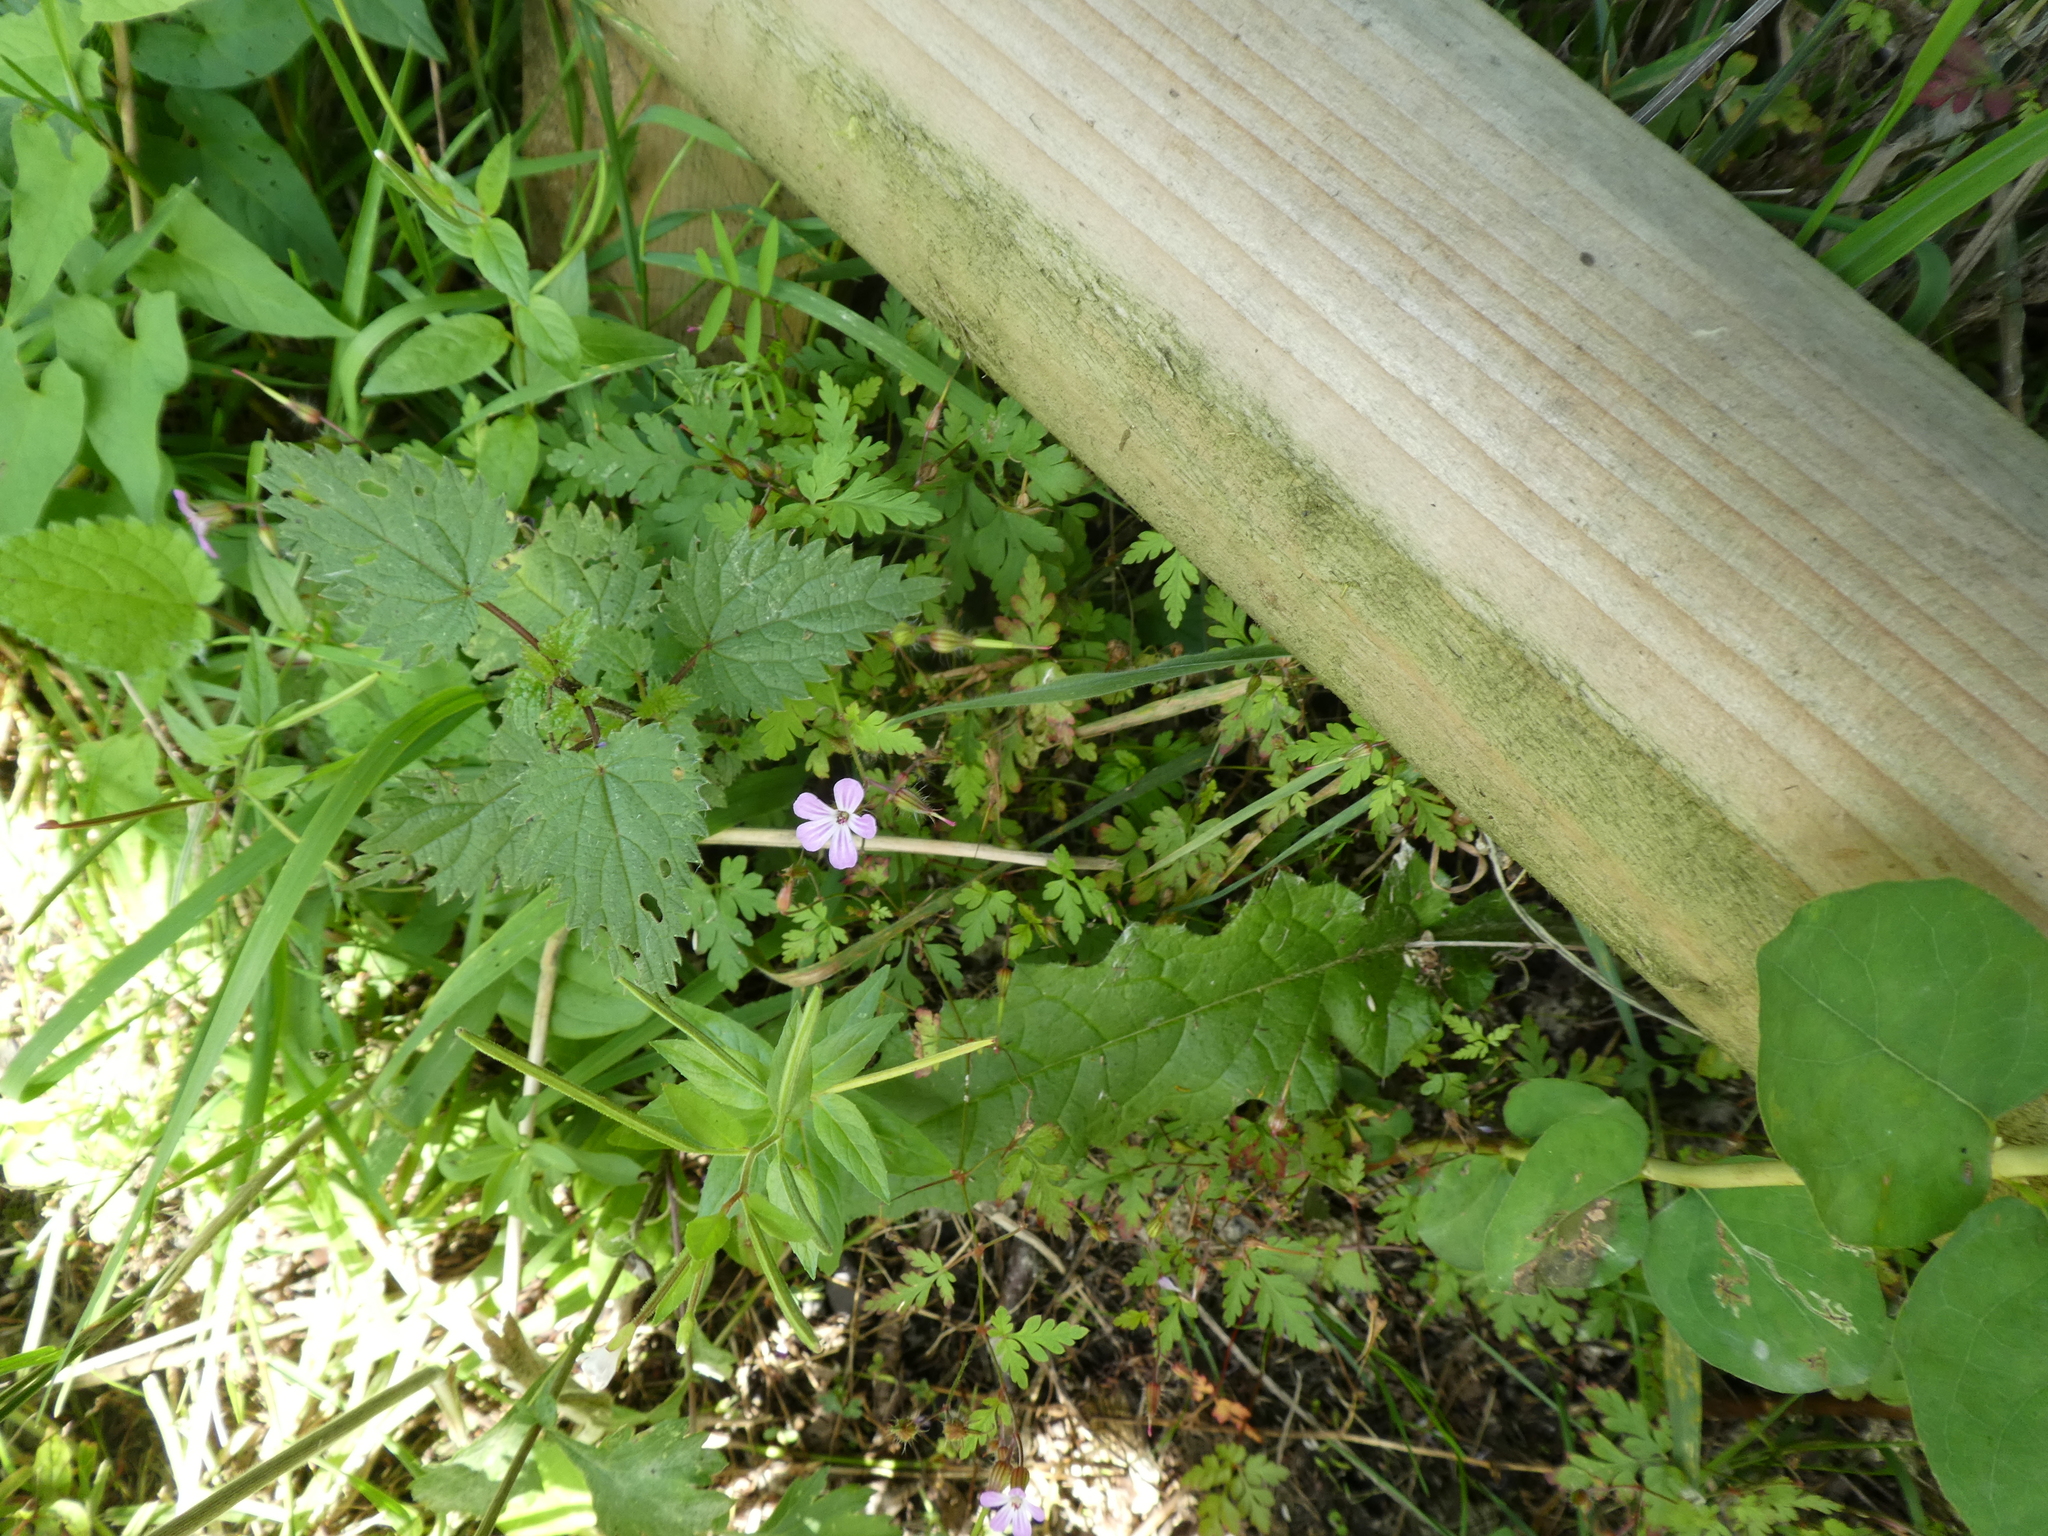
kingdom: Plantae
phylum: Tracheophyta
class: Magnoliopsida
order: Geraniales
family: Geraniaceae
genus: Geranium
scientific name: Geranium robertianum
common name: Herb-robert
